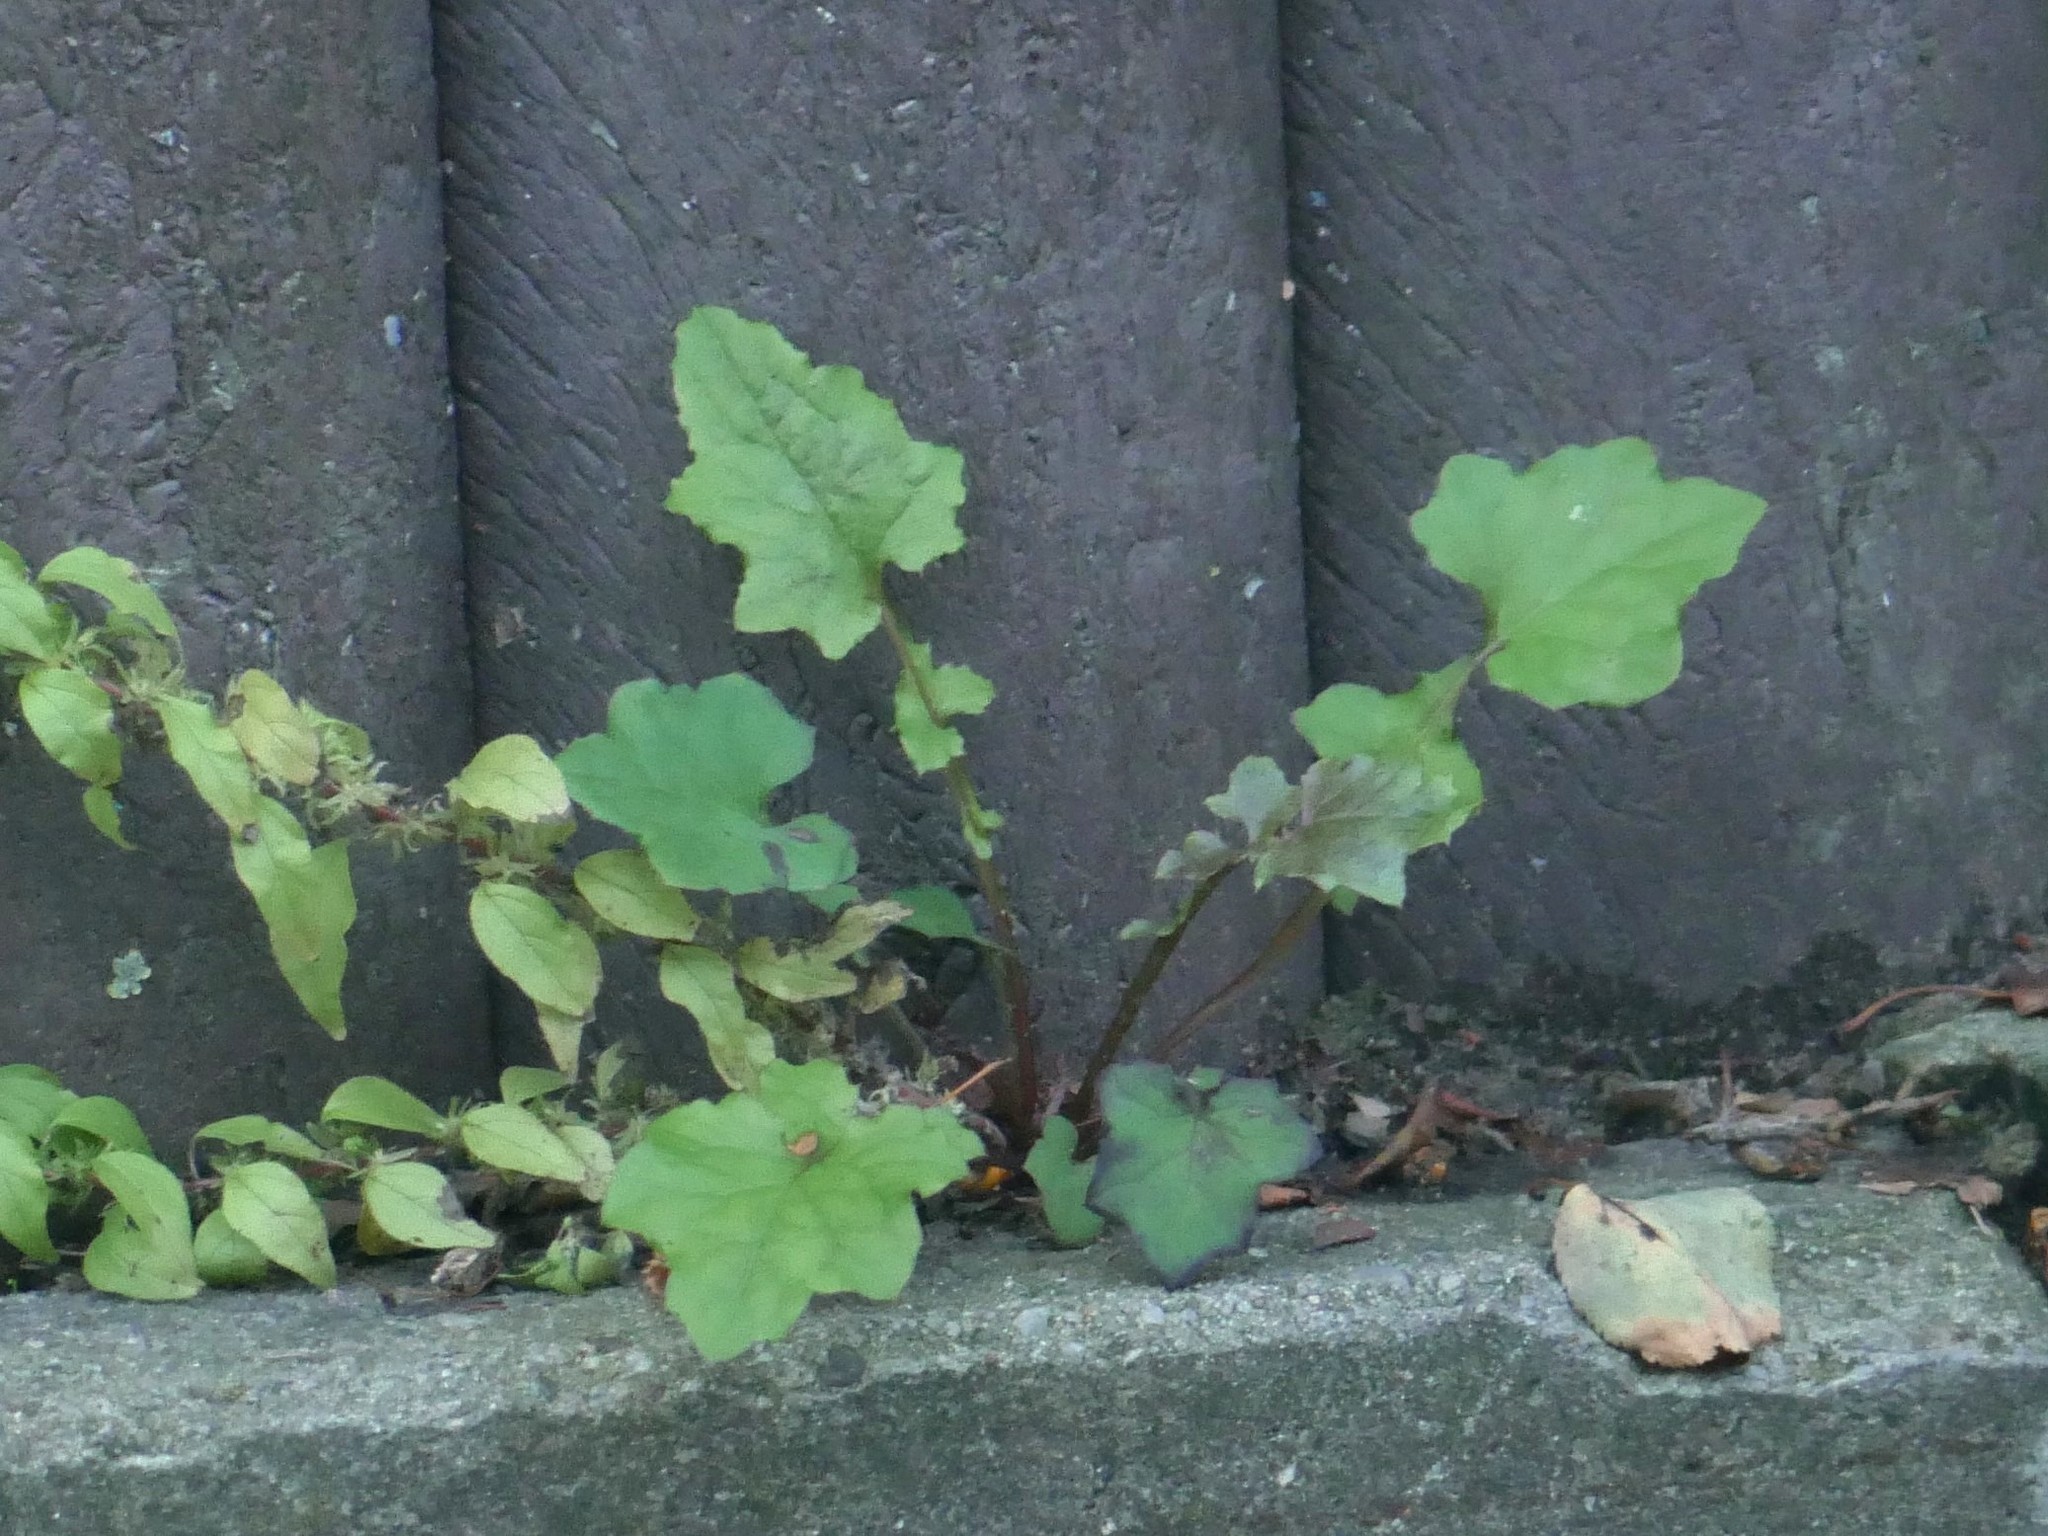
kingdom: Plantae
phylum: Tracheophyta
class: Magnoliopsida
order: Asterales
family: Asteraceae
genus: Mycelis
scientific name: Mycelis muralis
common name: Wall lettuce
